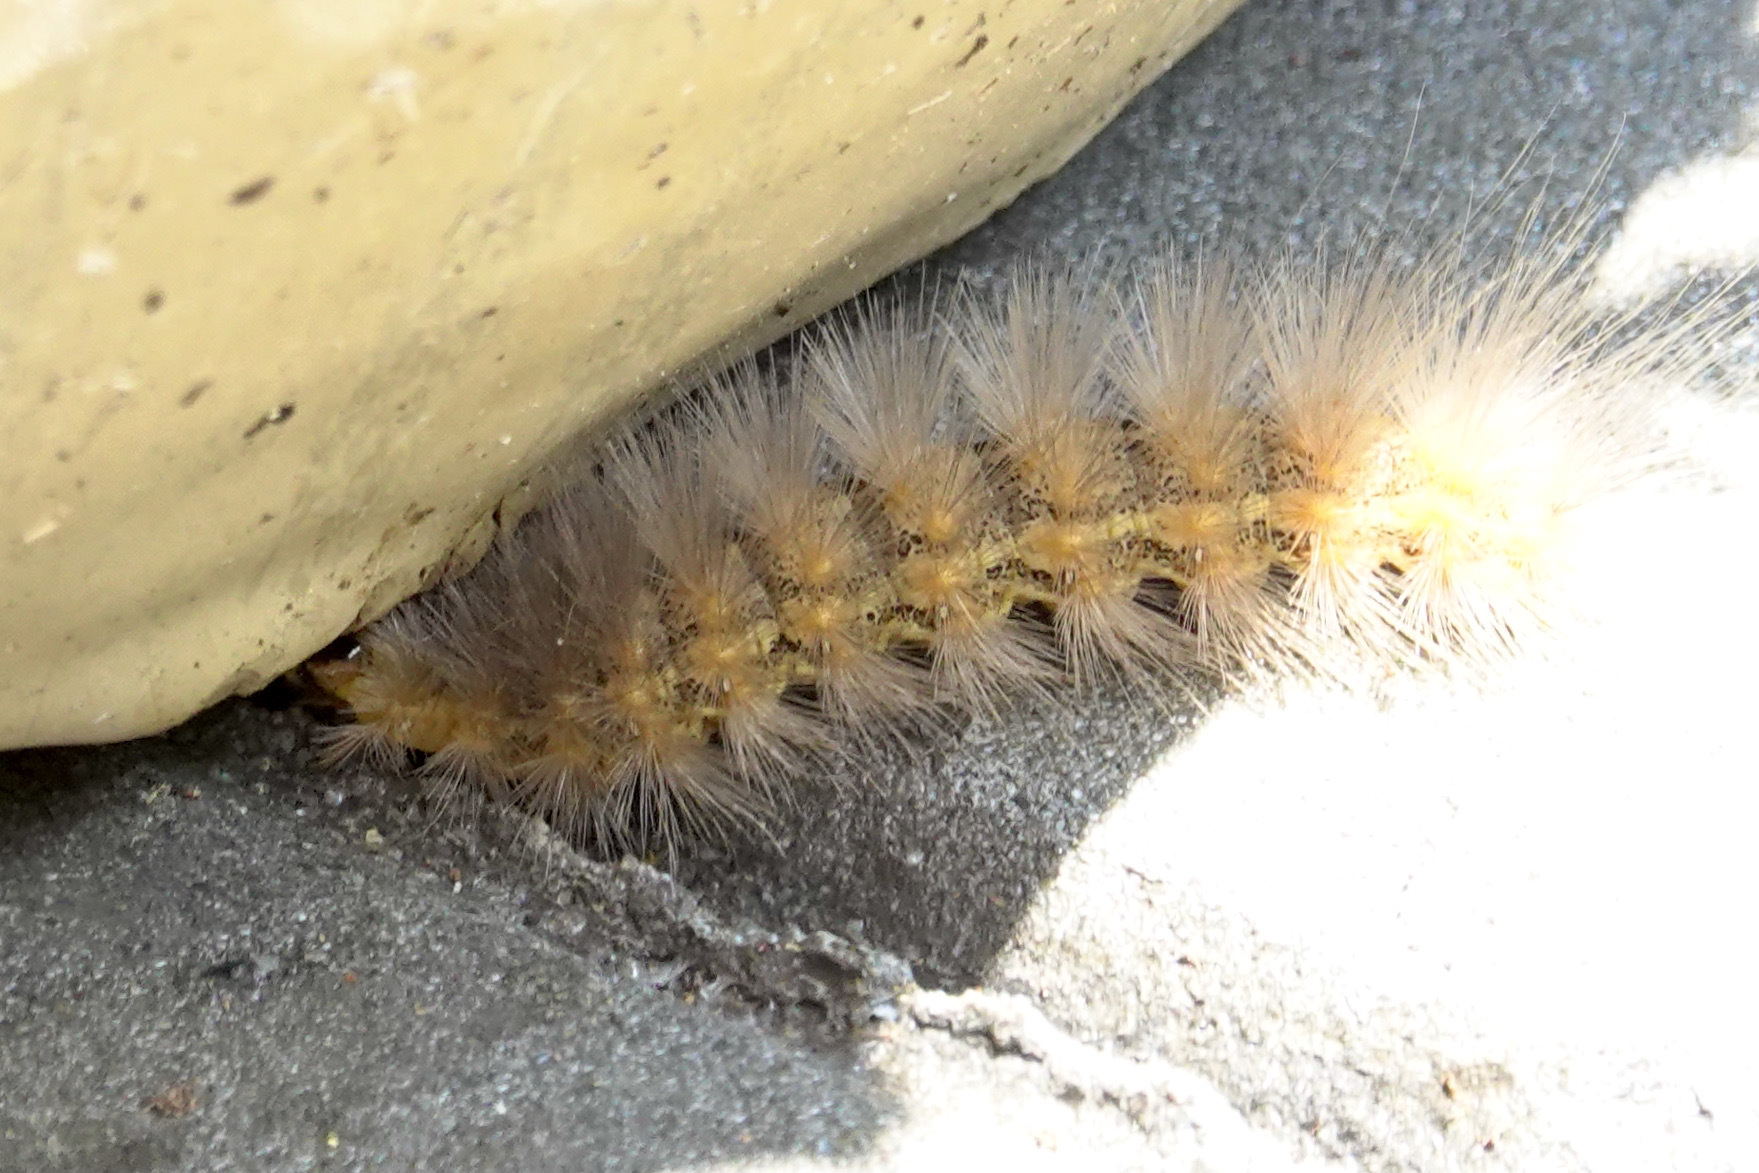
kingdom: Animalia
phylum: Arthropoda
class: Insecta
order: Lepidoptera
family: Erebidae
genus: Estigmene
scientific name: Estigmene acrea
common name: Salt marsh moth
